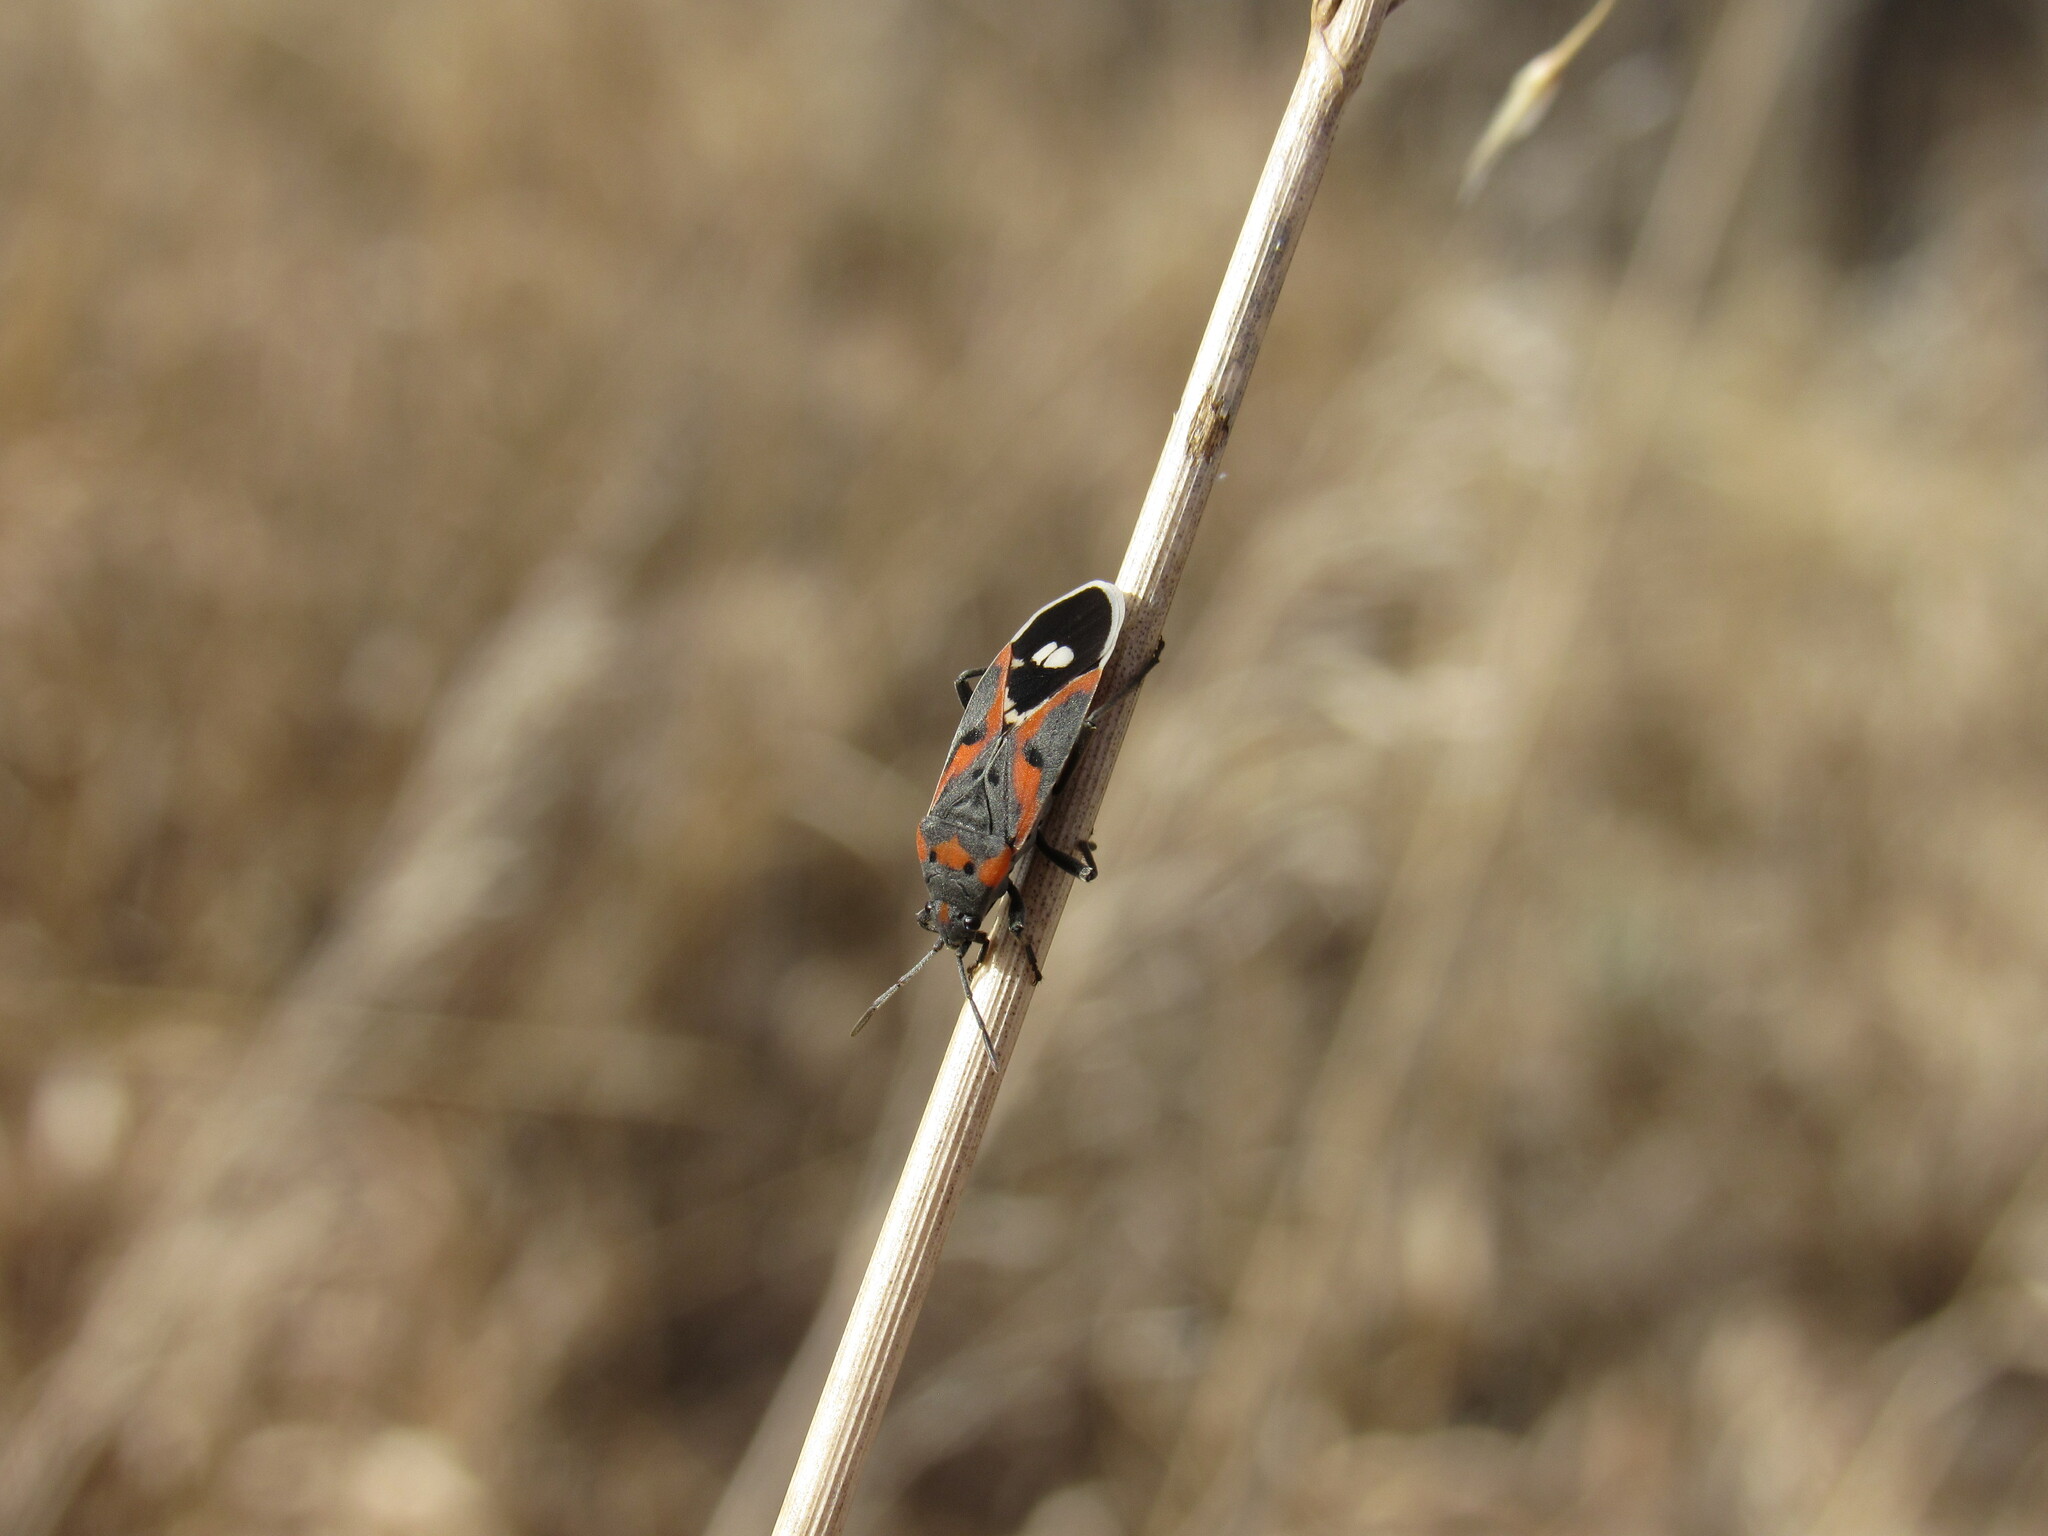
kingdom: Animalia
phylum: Arthropoda
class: Insecta
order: Hemiptera
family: Lygaeidae
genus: Lygaeus
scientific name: Lygaeus kalmii
